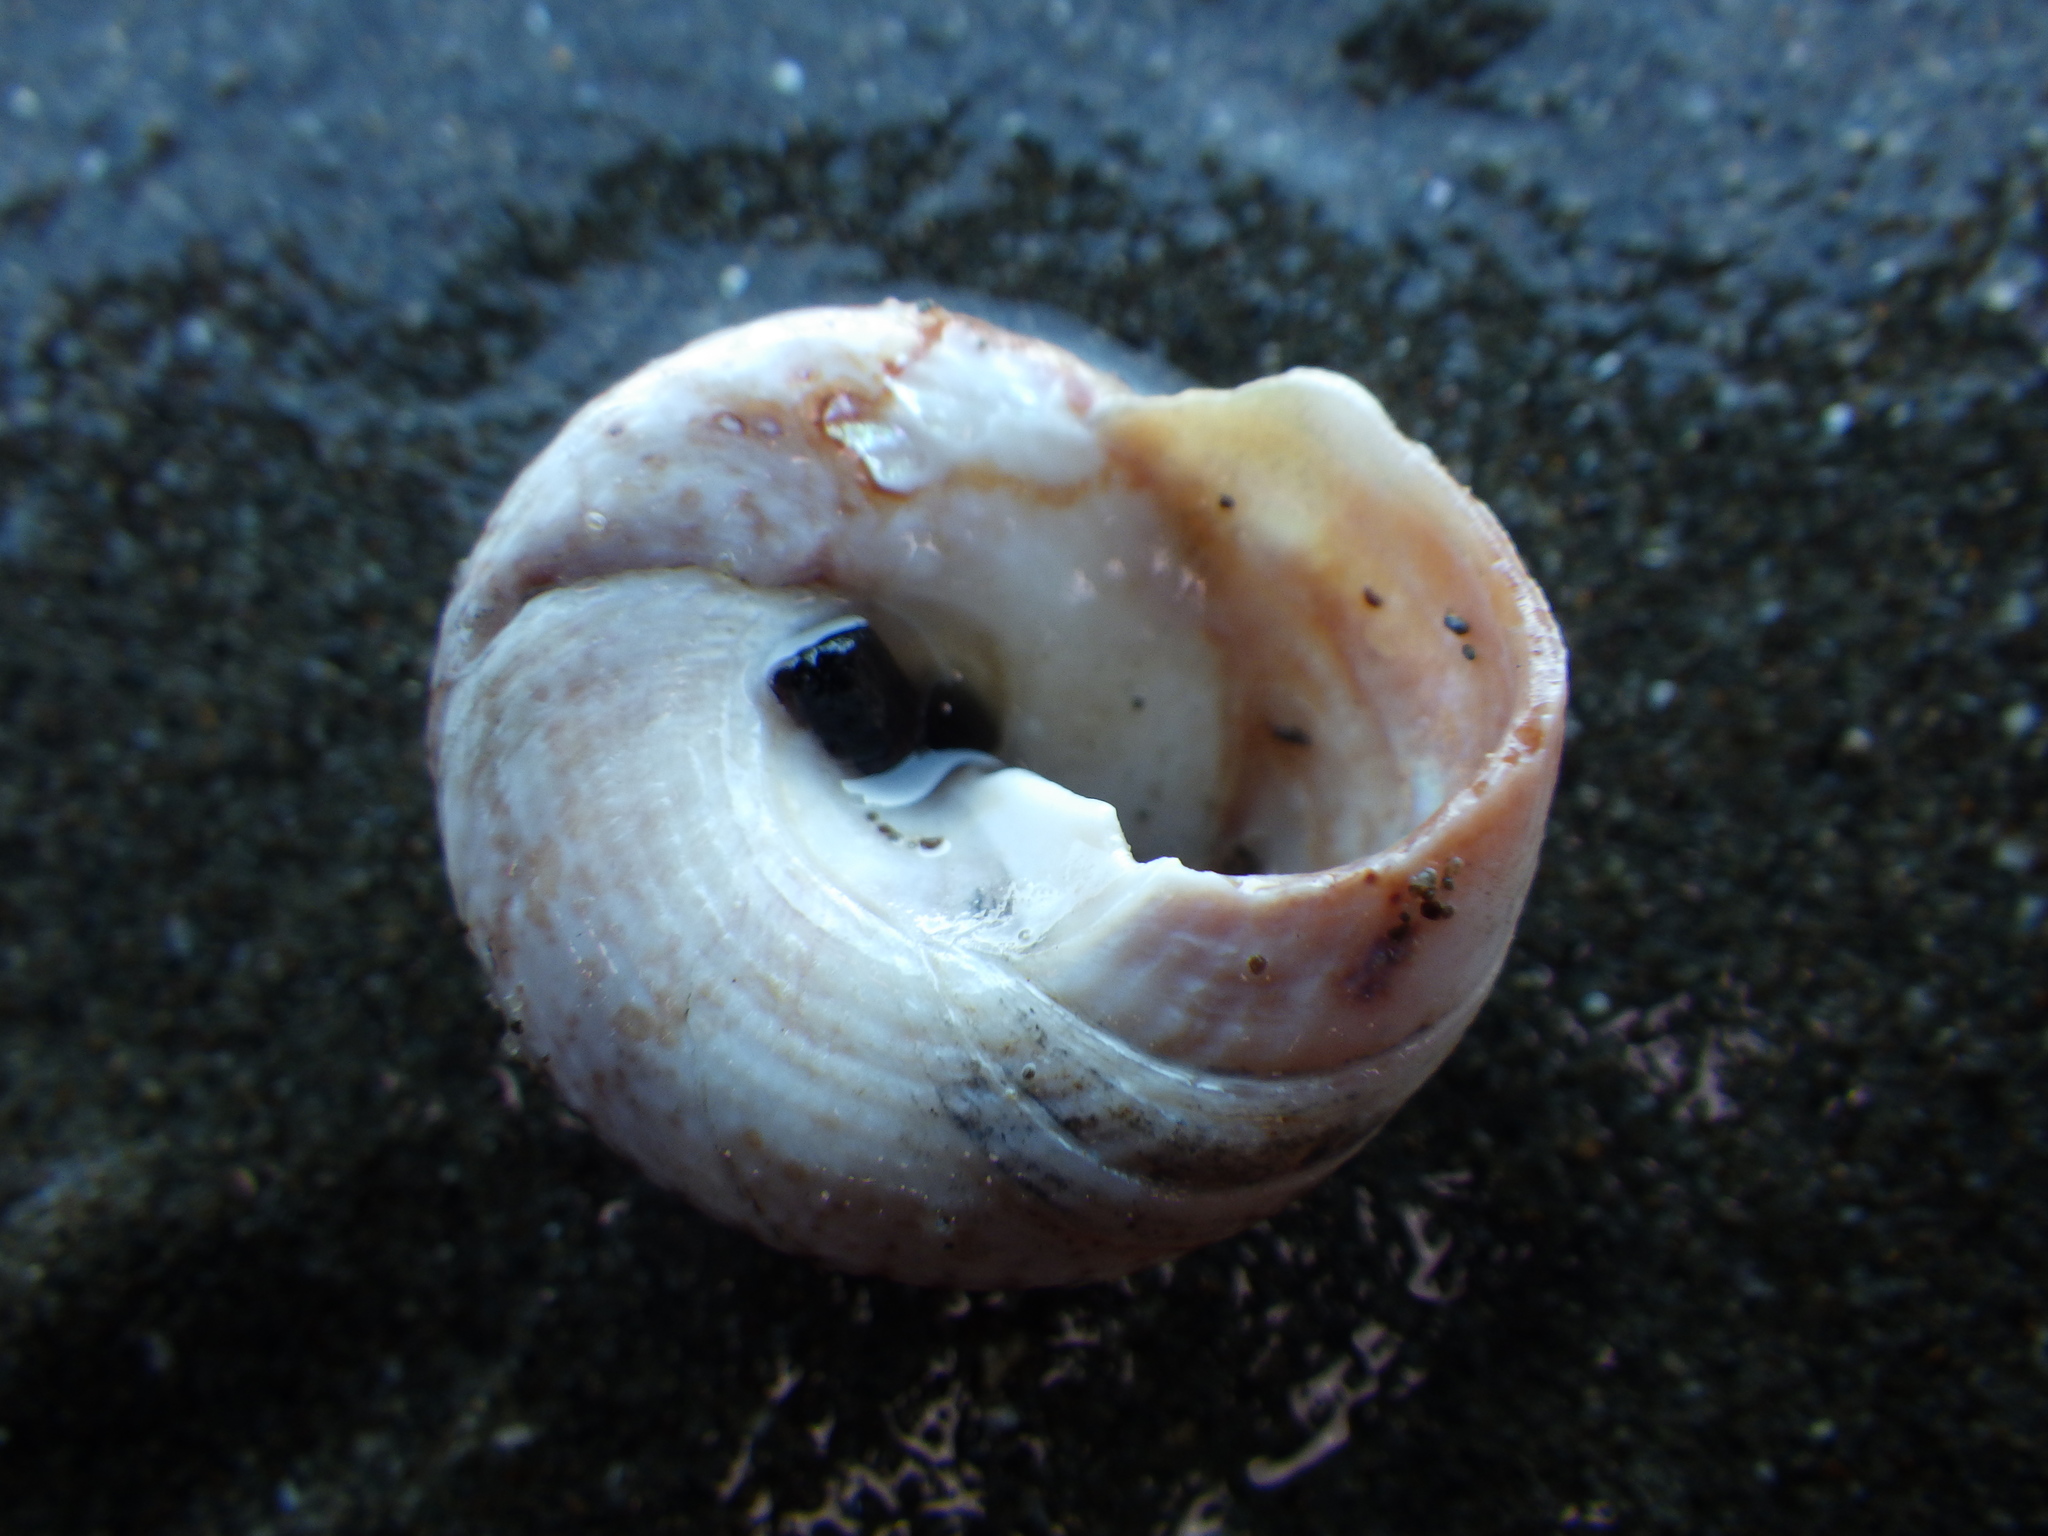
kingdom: Animalia
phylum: Mollusca
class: Gastropoda
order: Trochida
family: Trochidae
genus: Coelotrochus
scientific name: Coelotrochus tiaratus
